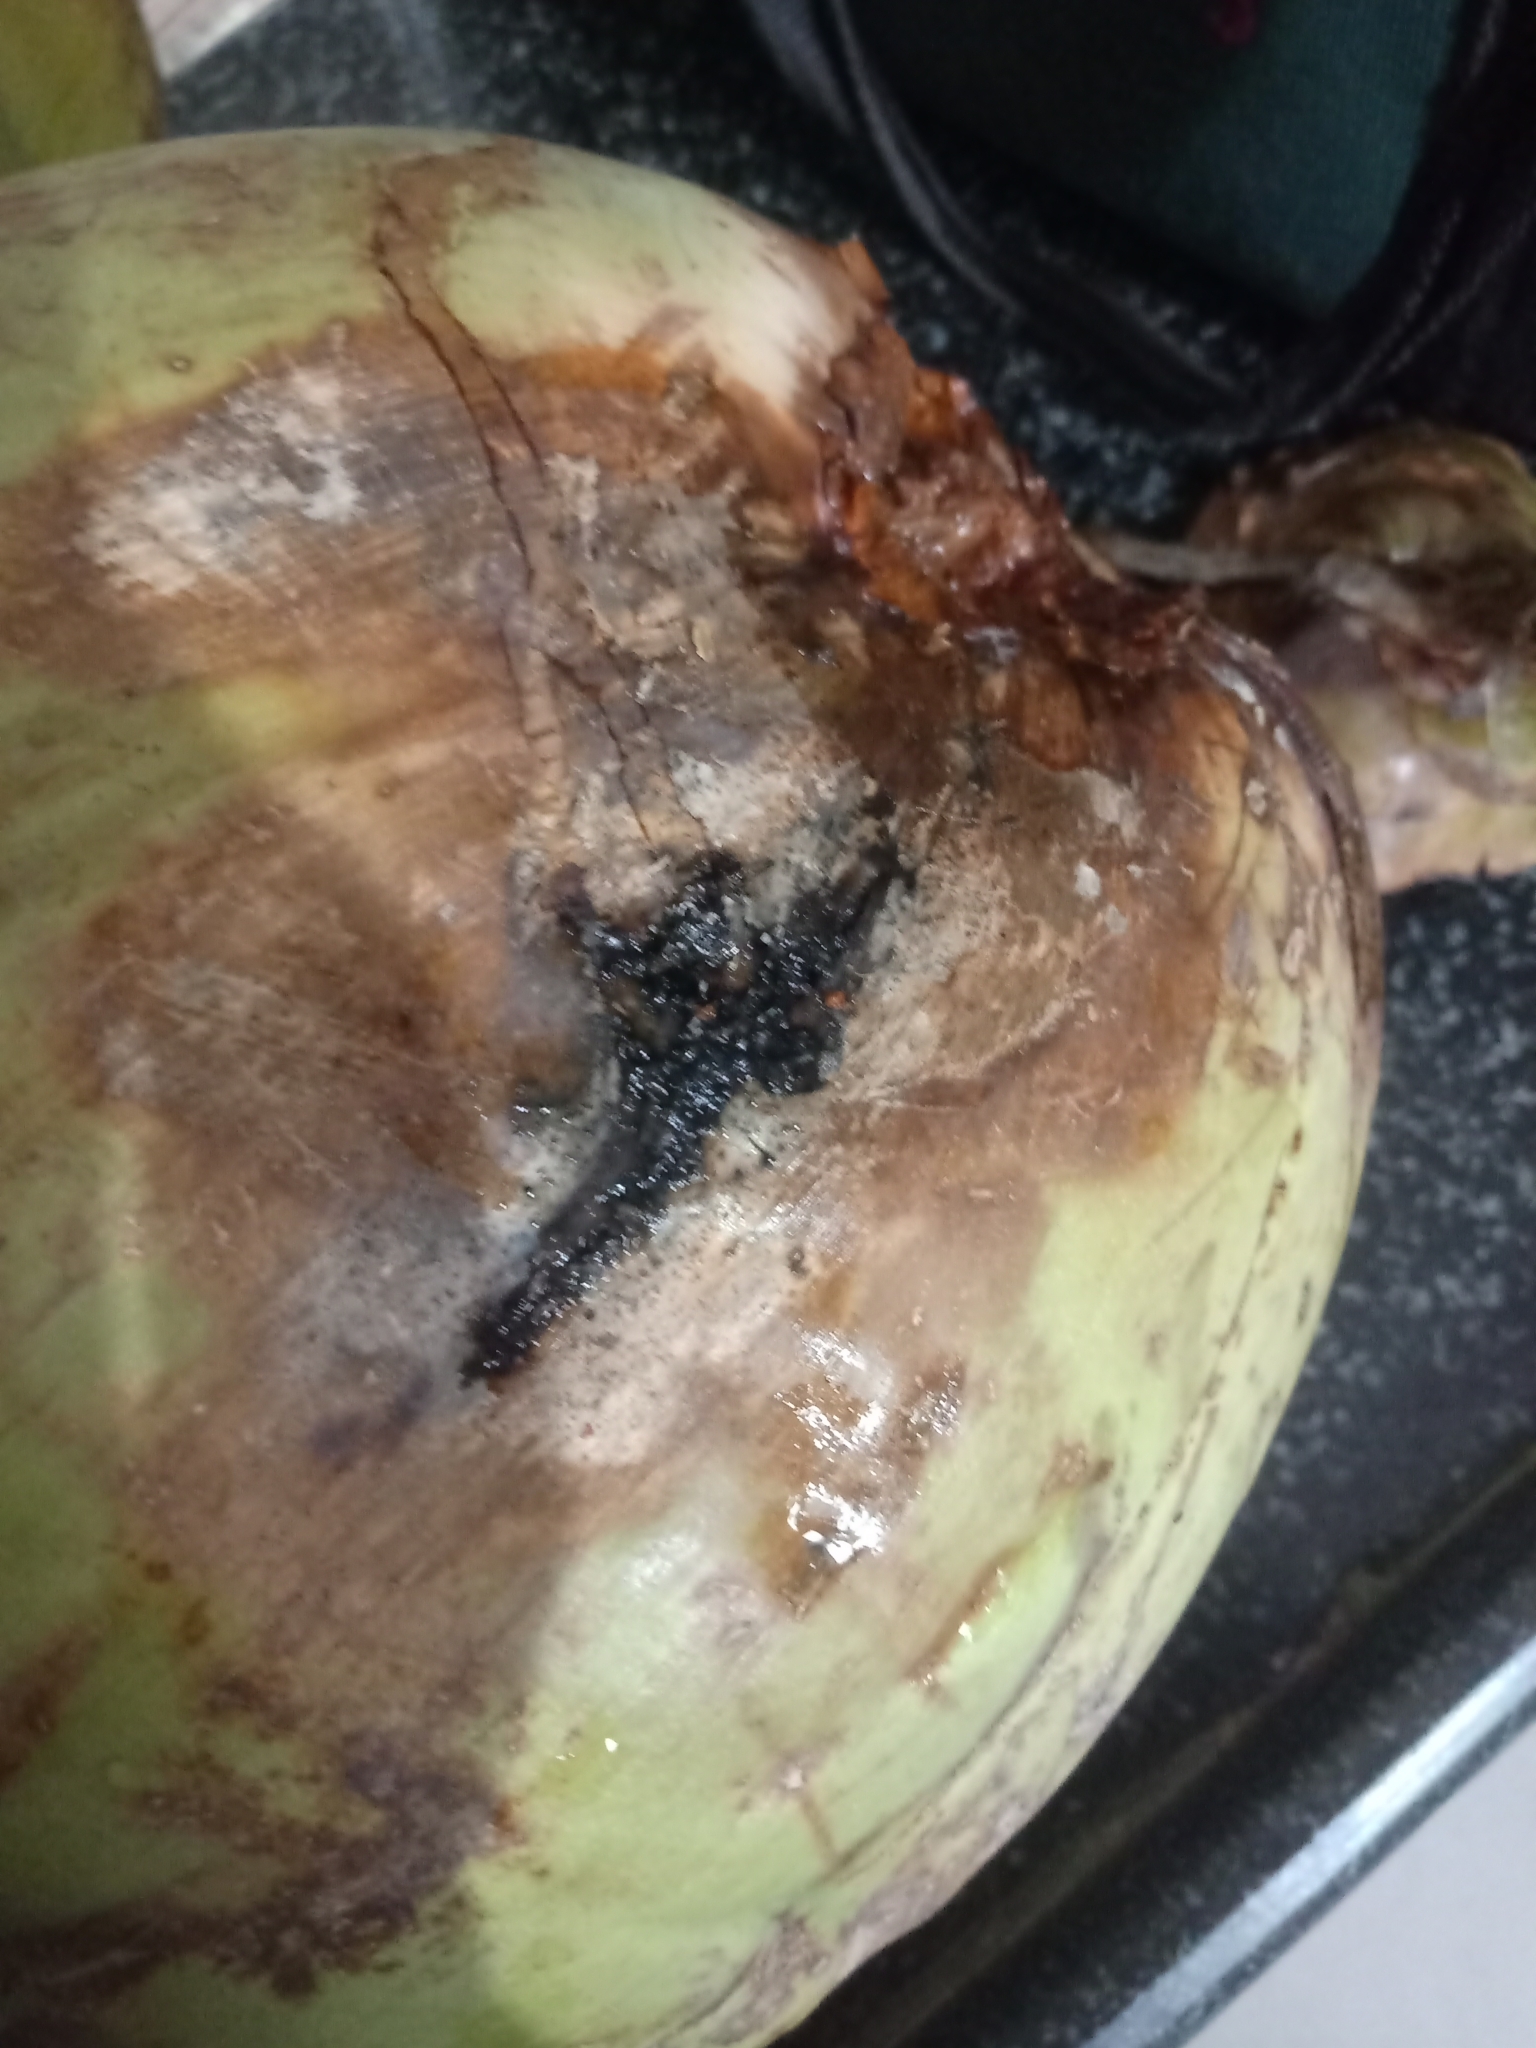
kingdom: Chromista
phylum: Oomycota
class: Peronosporea
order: Peronosporales
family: Peronosporaceae
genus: Phytophthora
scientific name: Phytophthora palmivora
